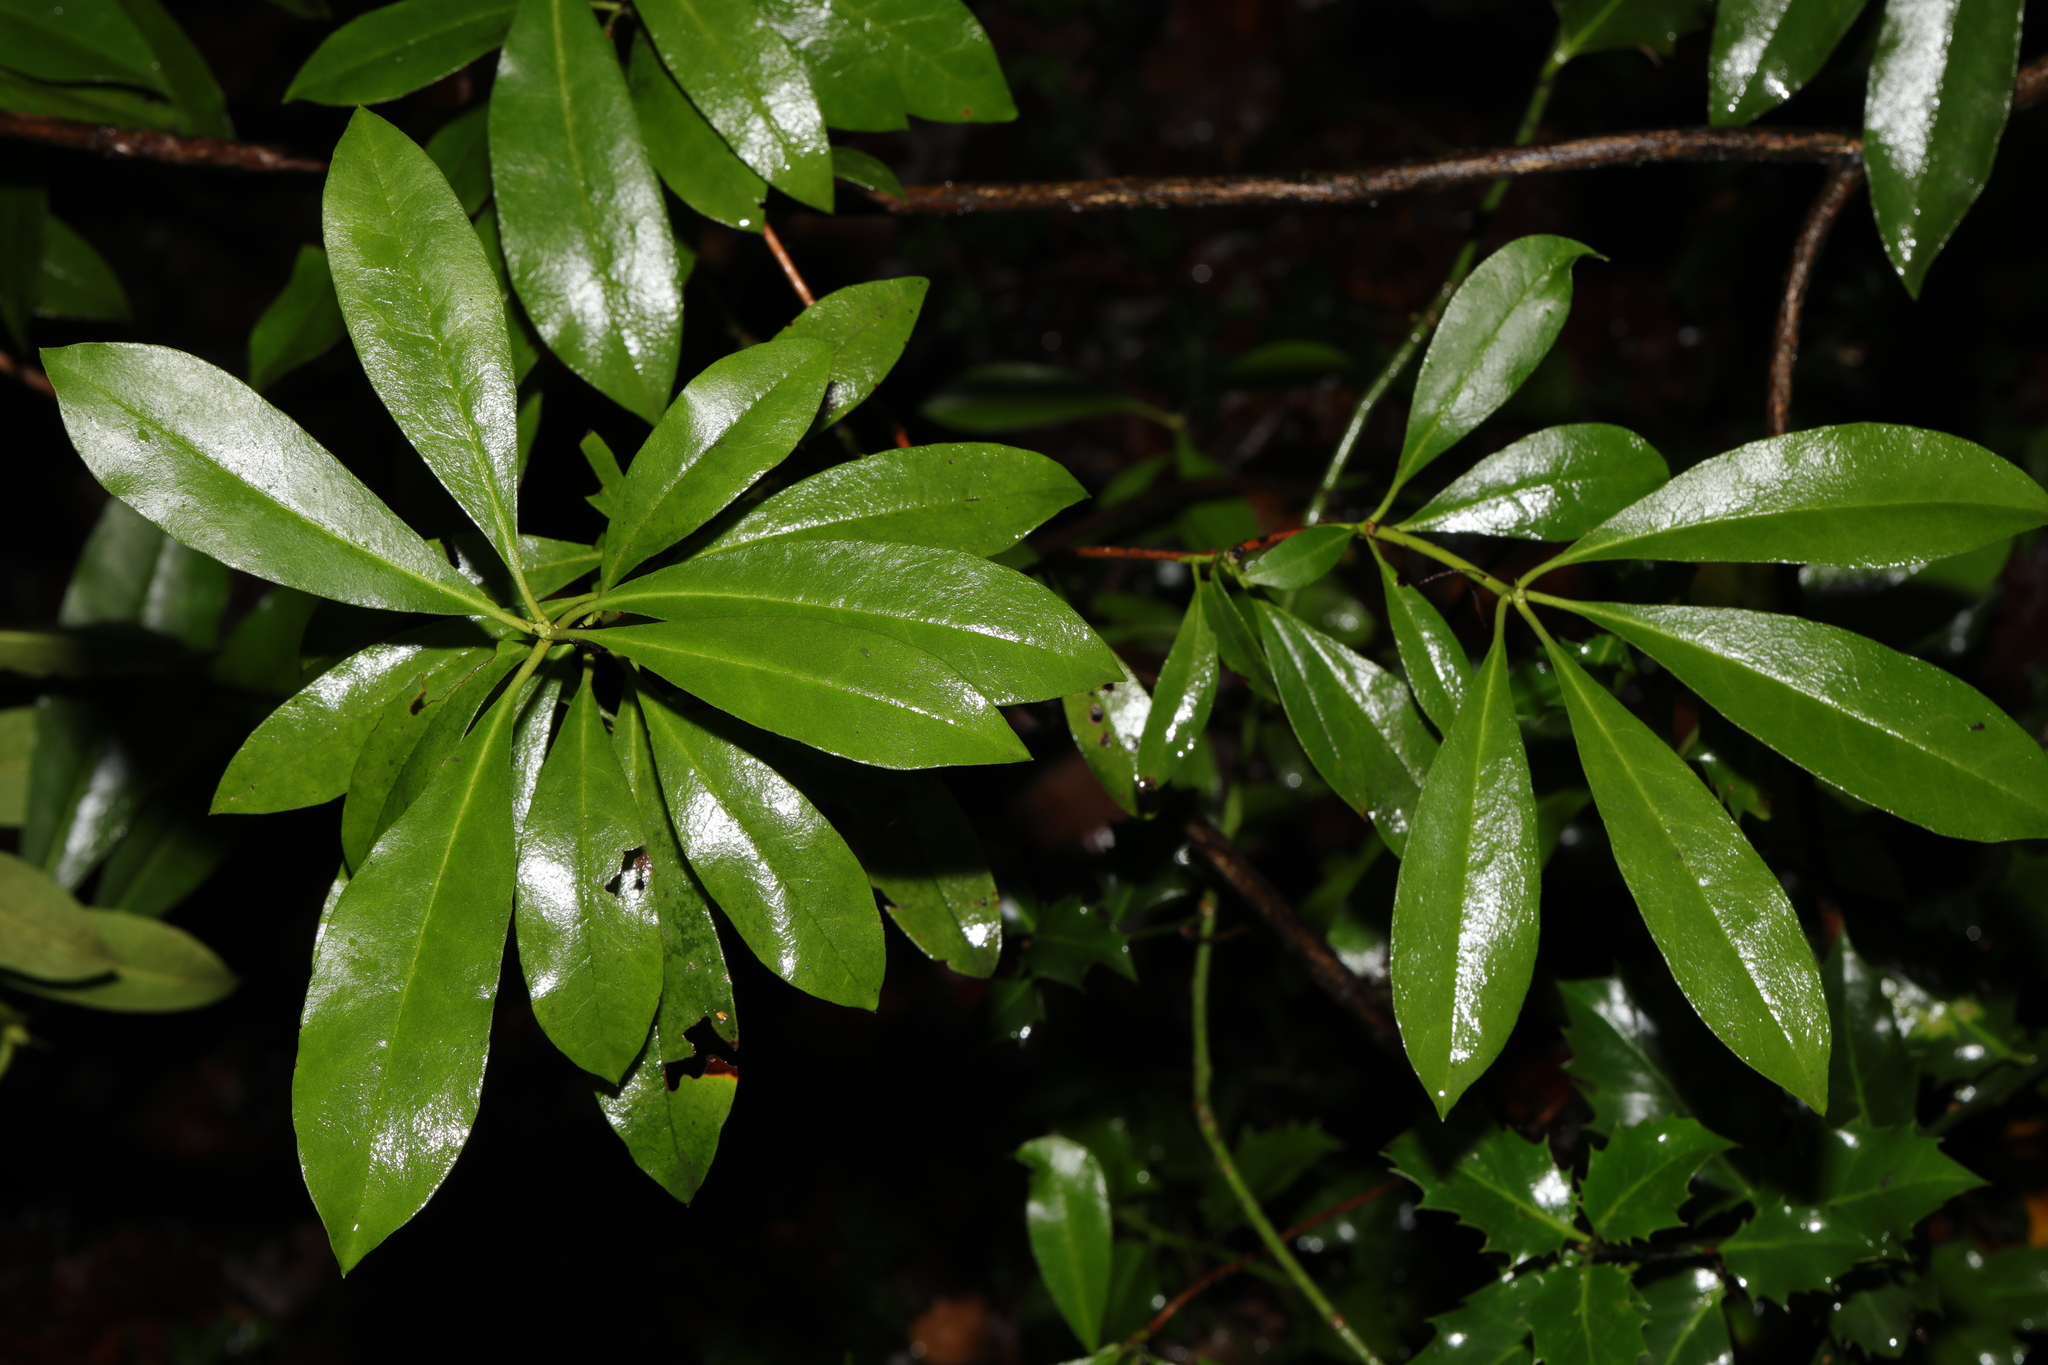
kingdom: Plantae
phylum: Tracheophyta
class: Magnoliopsida
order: Ericales
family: Ericaceae
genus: Rhododendron
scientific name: Rhododendron ponticum
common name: Rhododendron
